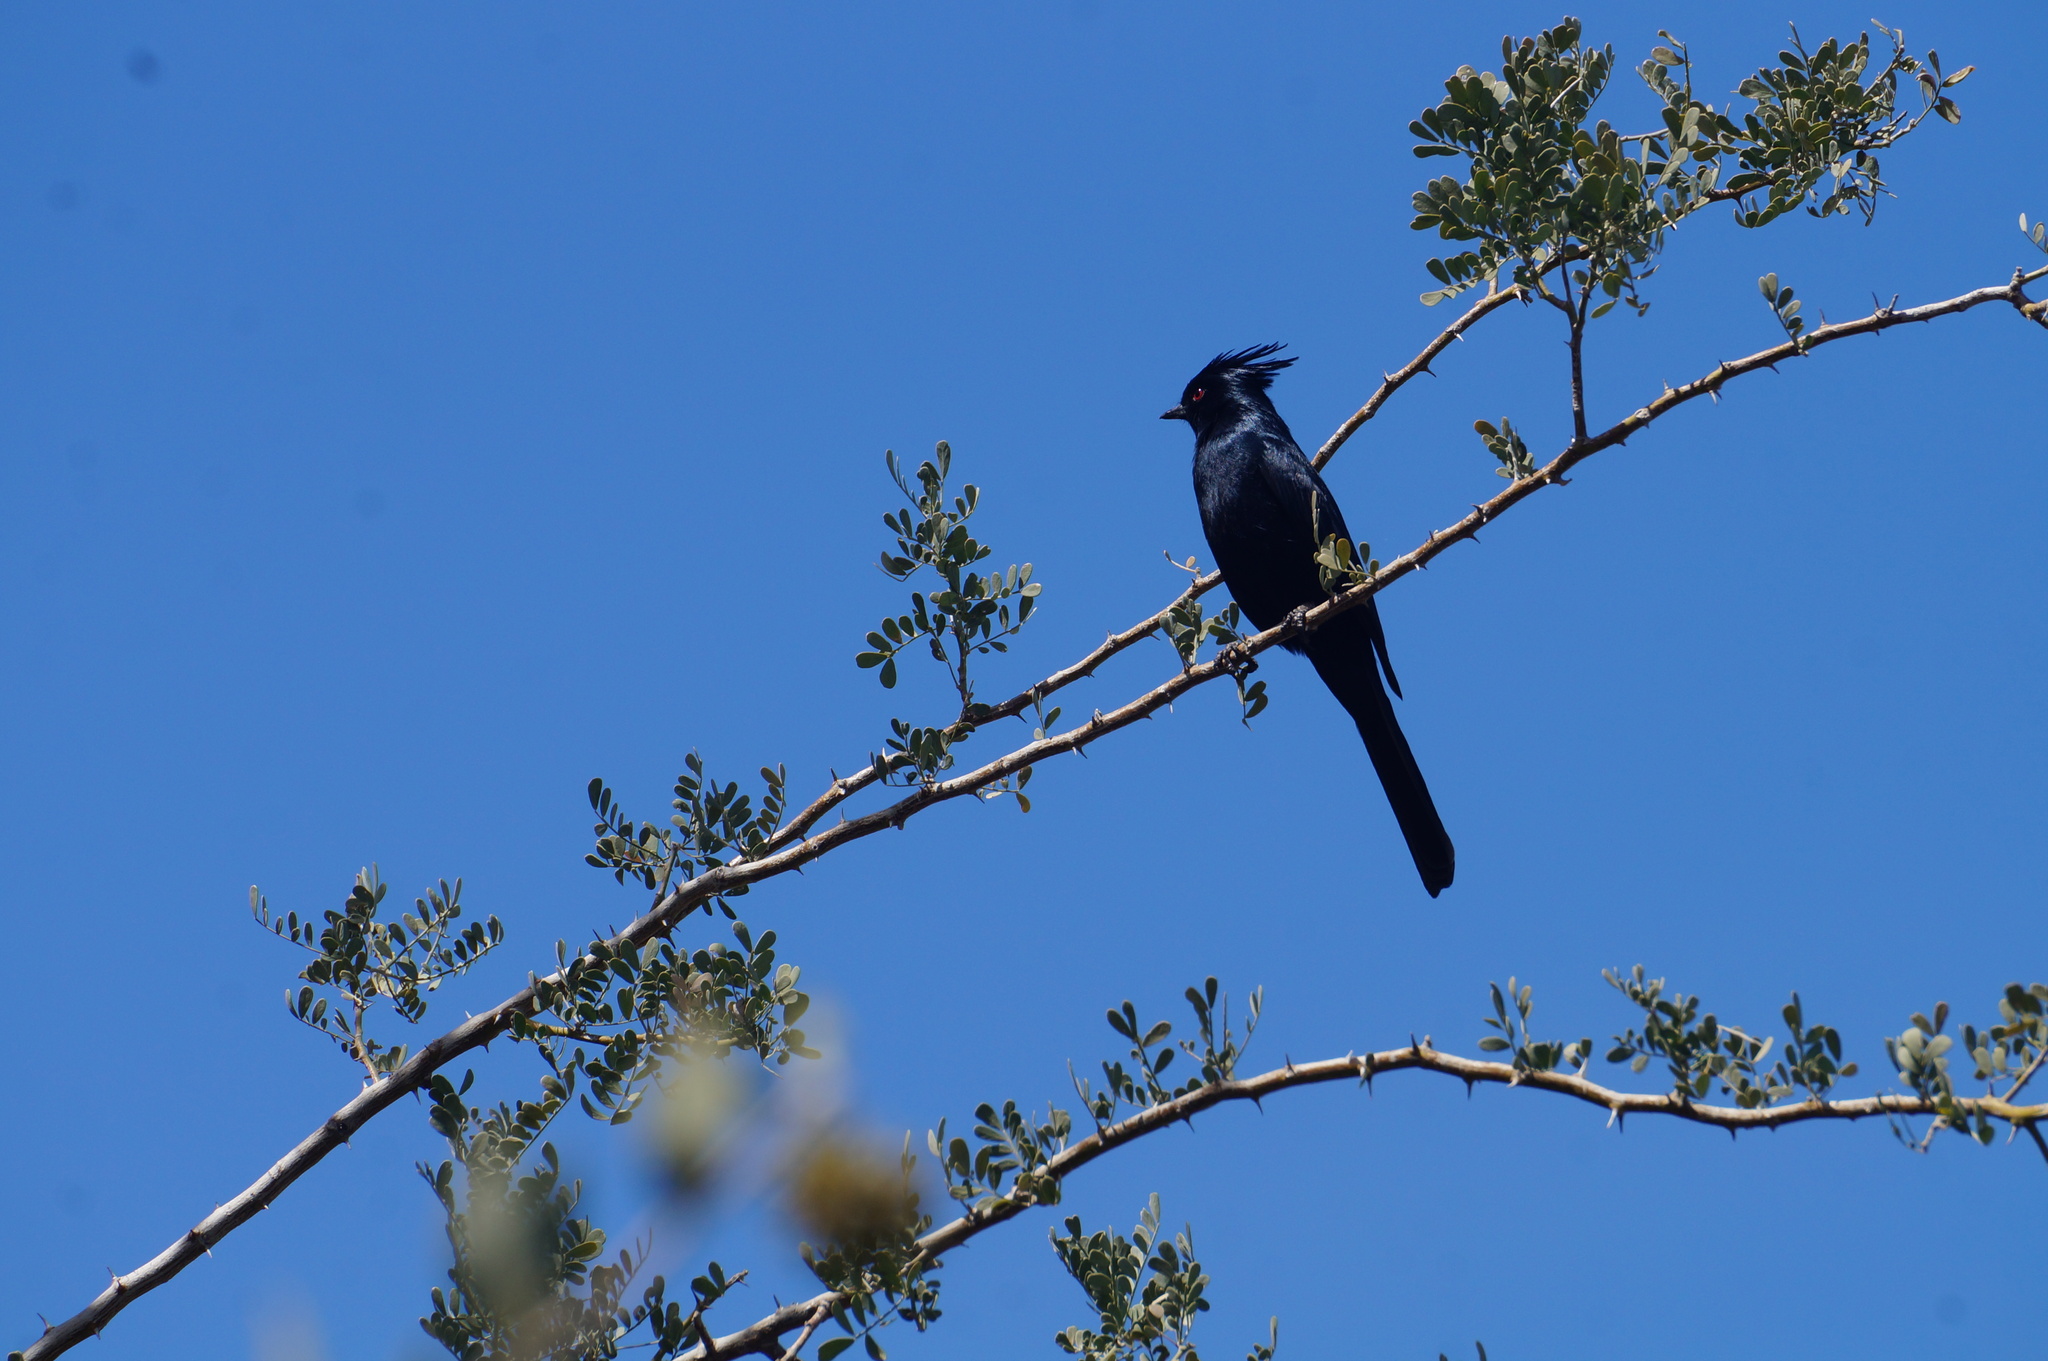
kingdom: Animalia
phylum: Chordata
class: Aves
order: Passeriformes
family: Ptilogonatidae
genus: Phainopepla
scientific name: Phainopepla nitens
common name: Phainopepla
